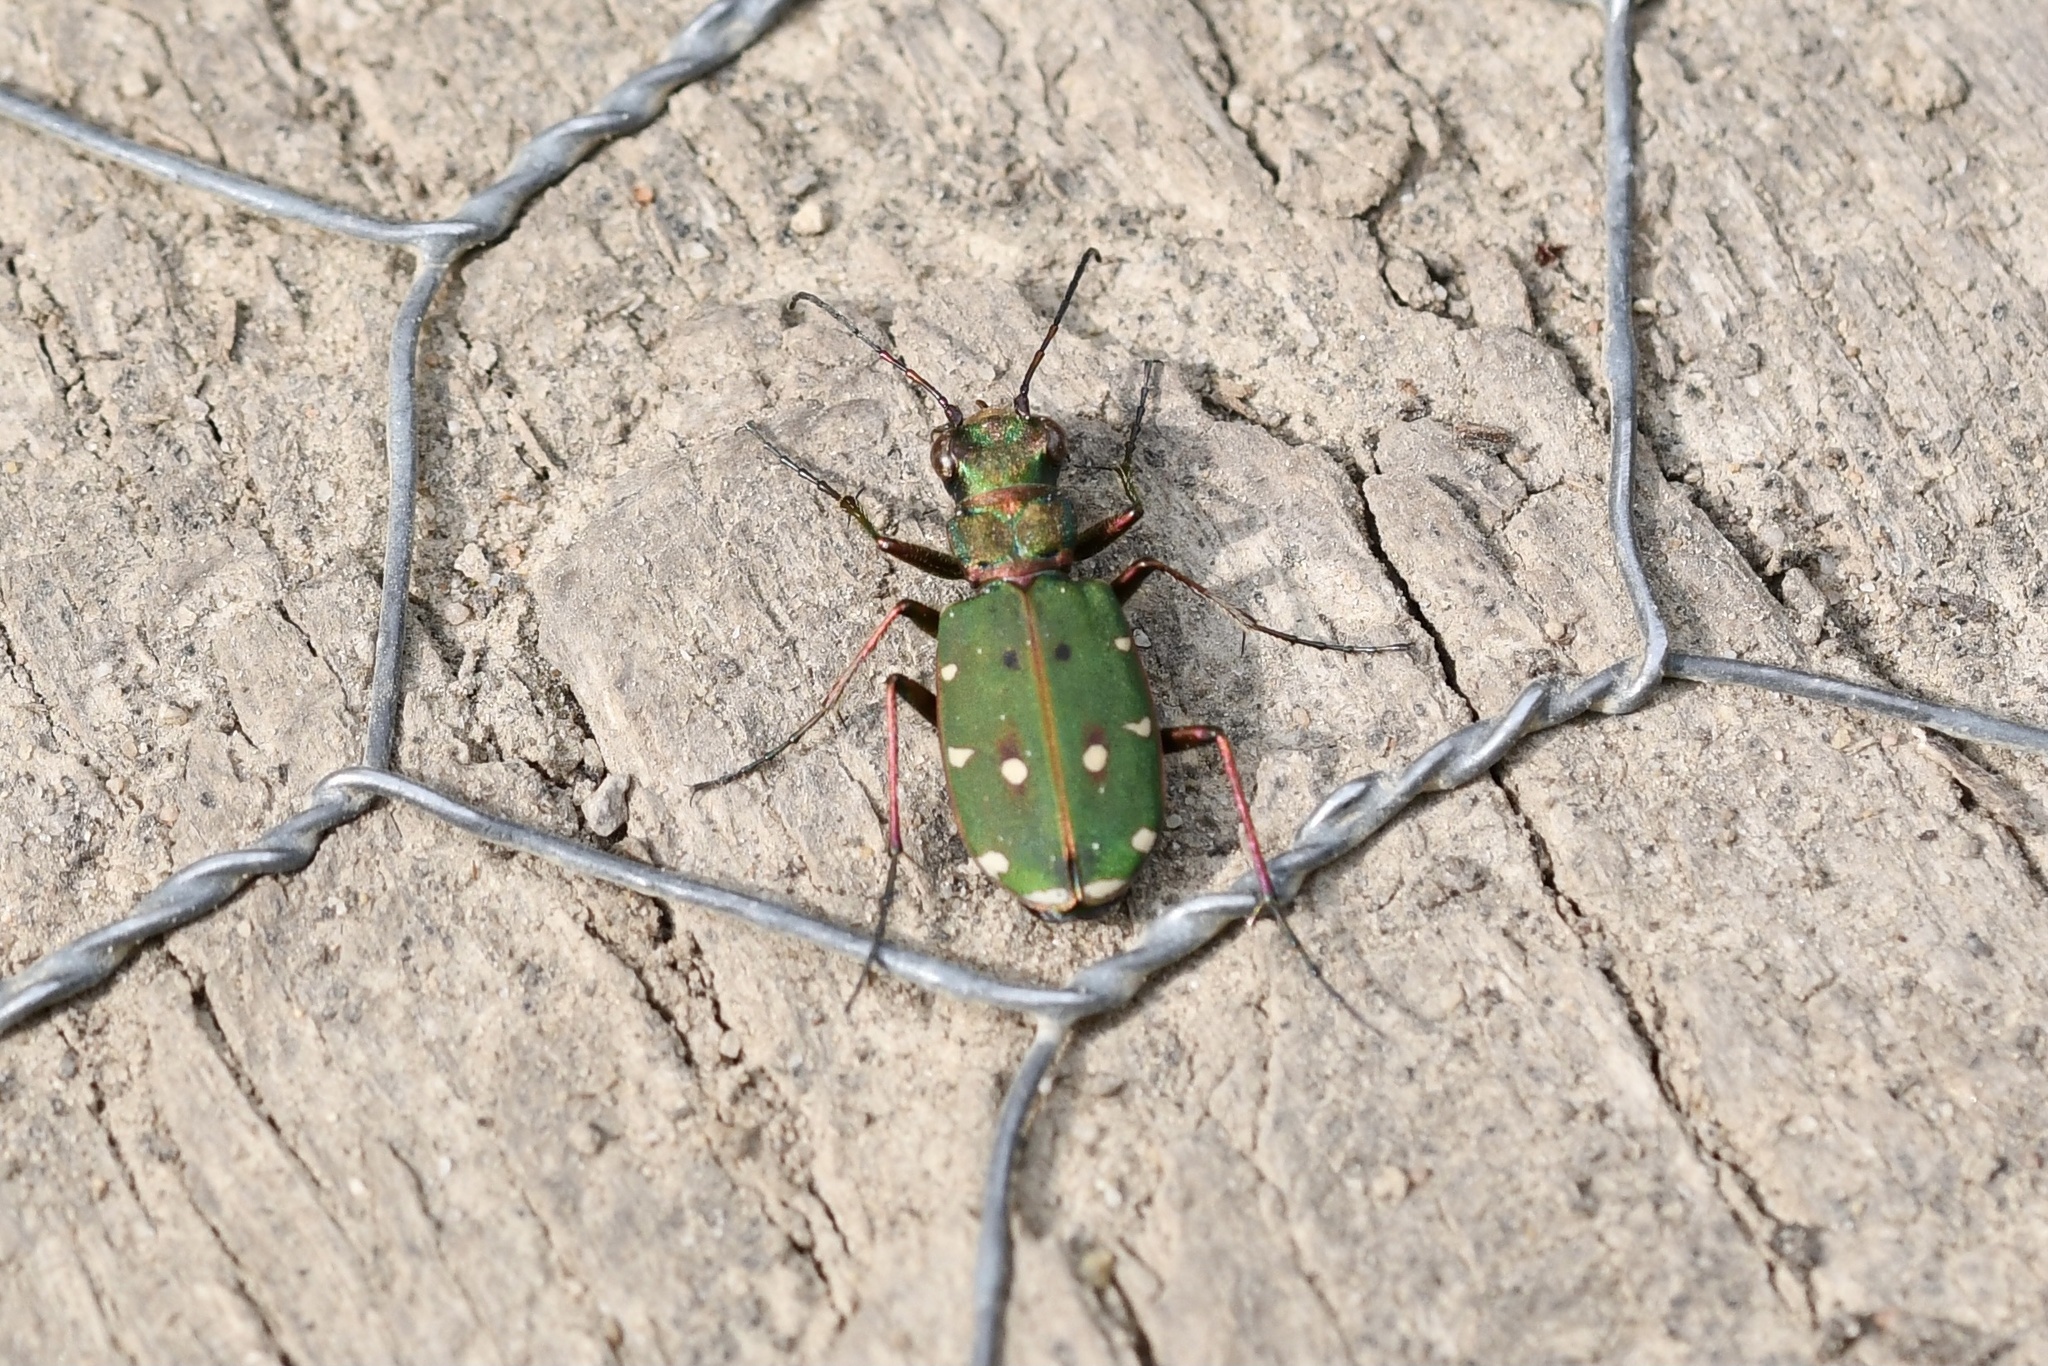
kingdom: Animalia
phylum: Arthropoda
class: Insecta
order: Coleoptera
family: Carabidae
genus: Cicindela
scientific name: Cicindela campestris
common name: Common tiger beetle
